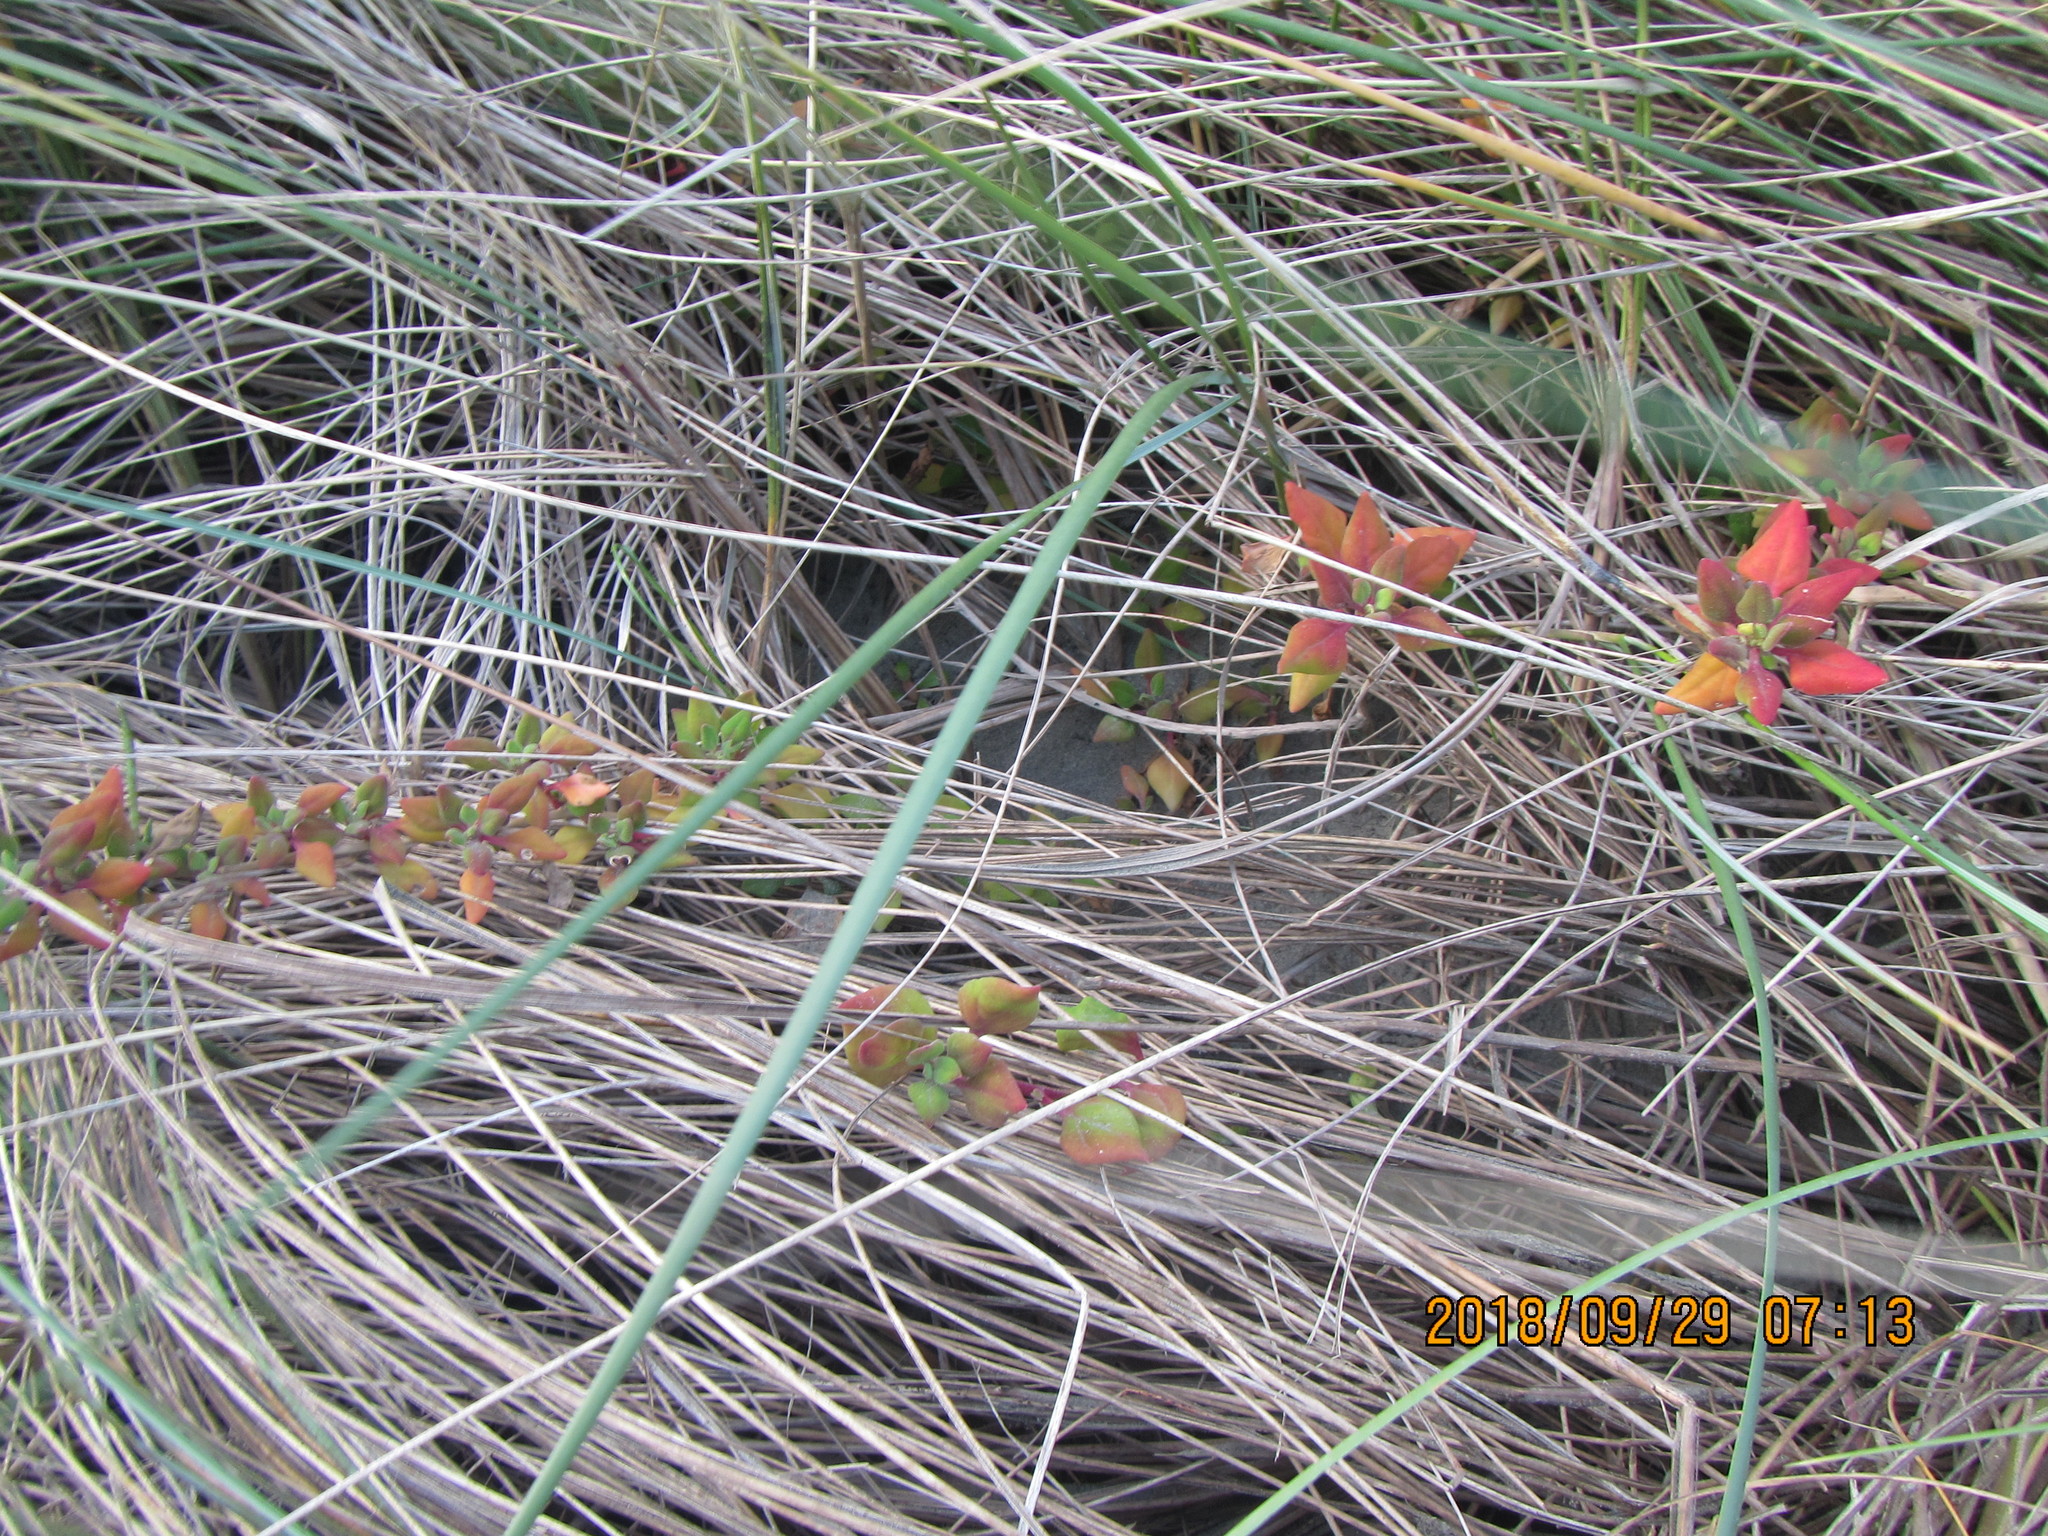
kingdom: Plantae
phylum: Tracheophyta
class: Magnoliopsida
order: Caryophyllales
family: Aizoaceae
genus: Tetragonia
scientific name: Tetragonia implexicoma
